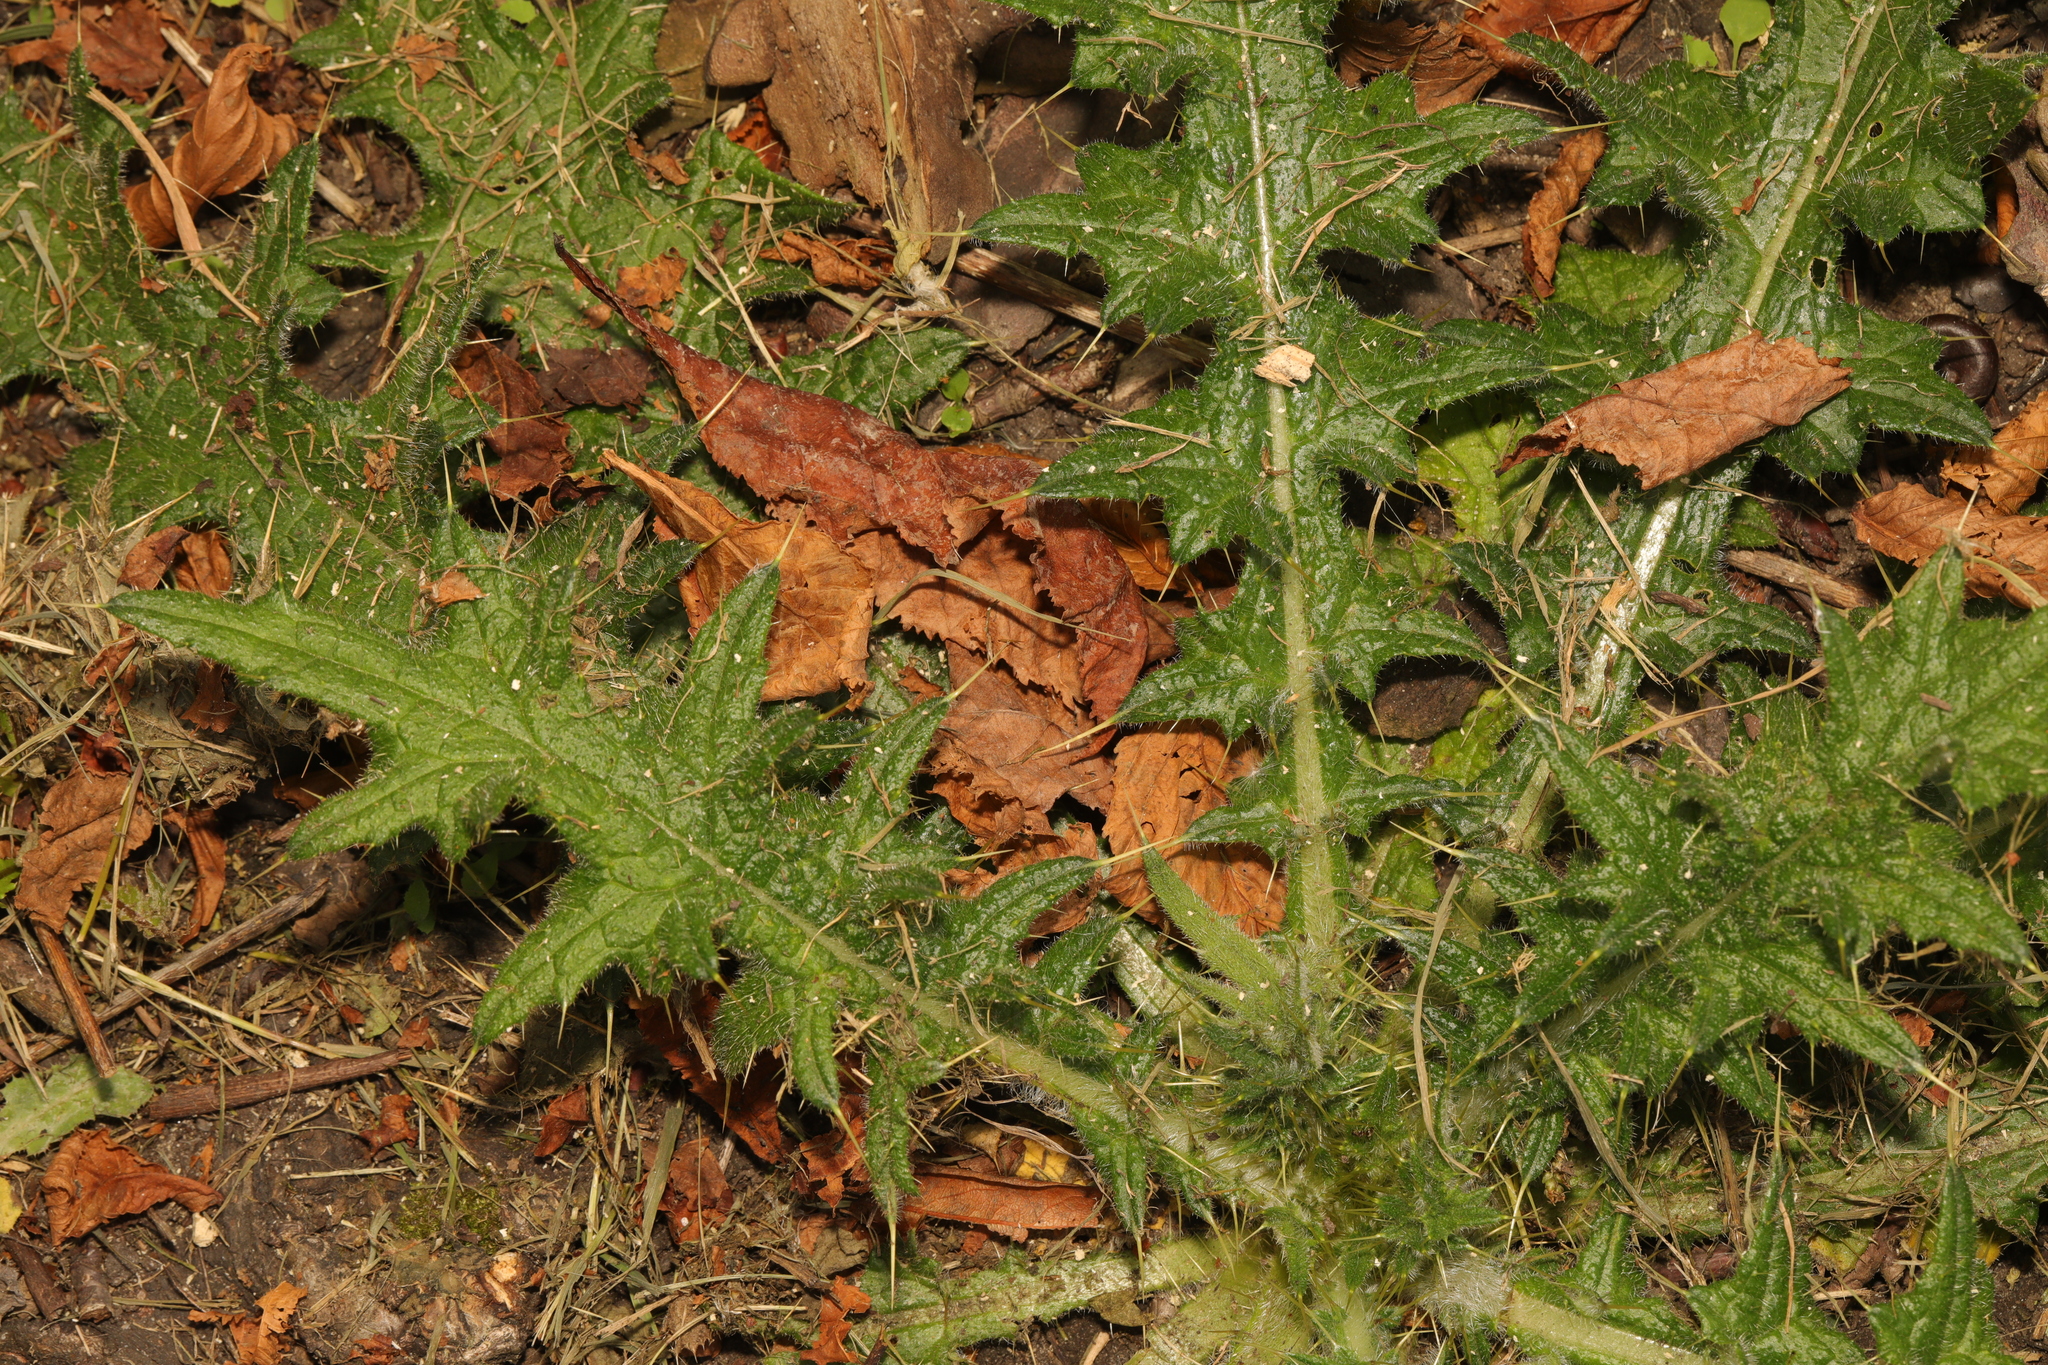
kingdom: Plantae
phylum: Tracheophyta
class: Magnoliopsida
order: Asterales
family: Asteraceae
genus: Cirsium
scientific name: Cirsium vulgare
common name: Bull thistle
